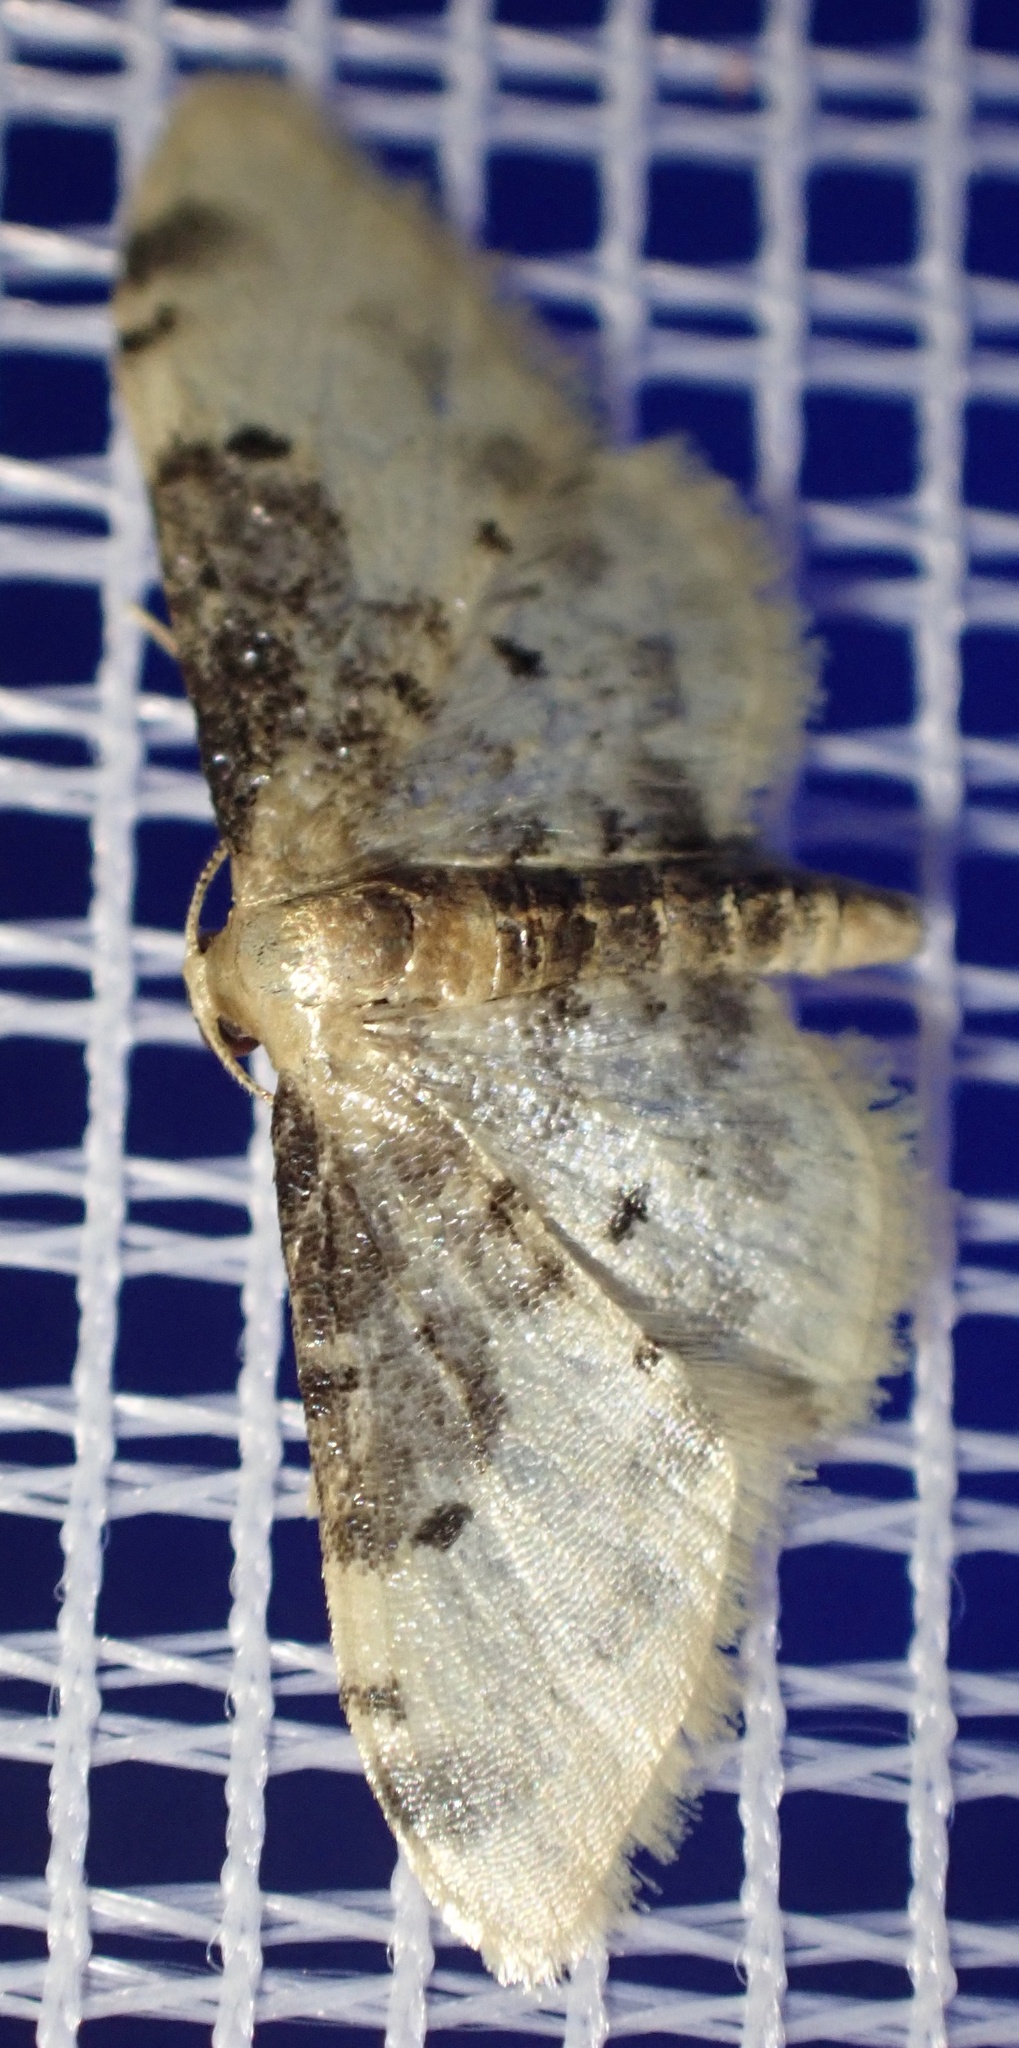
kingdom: Animalia
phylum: Arthropoda
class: Insecta
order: Lepidoptera
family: Geometridae
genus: Idaea
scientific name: Idaea filicata
